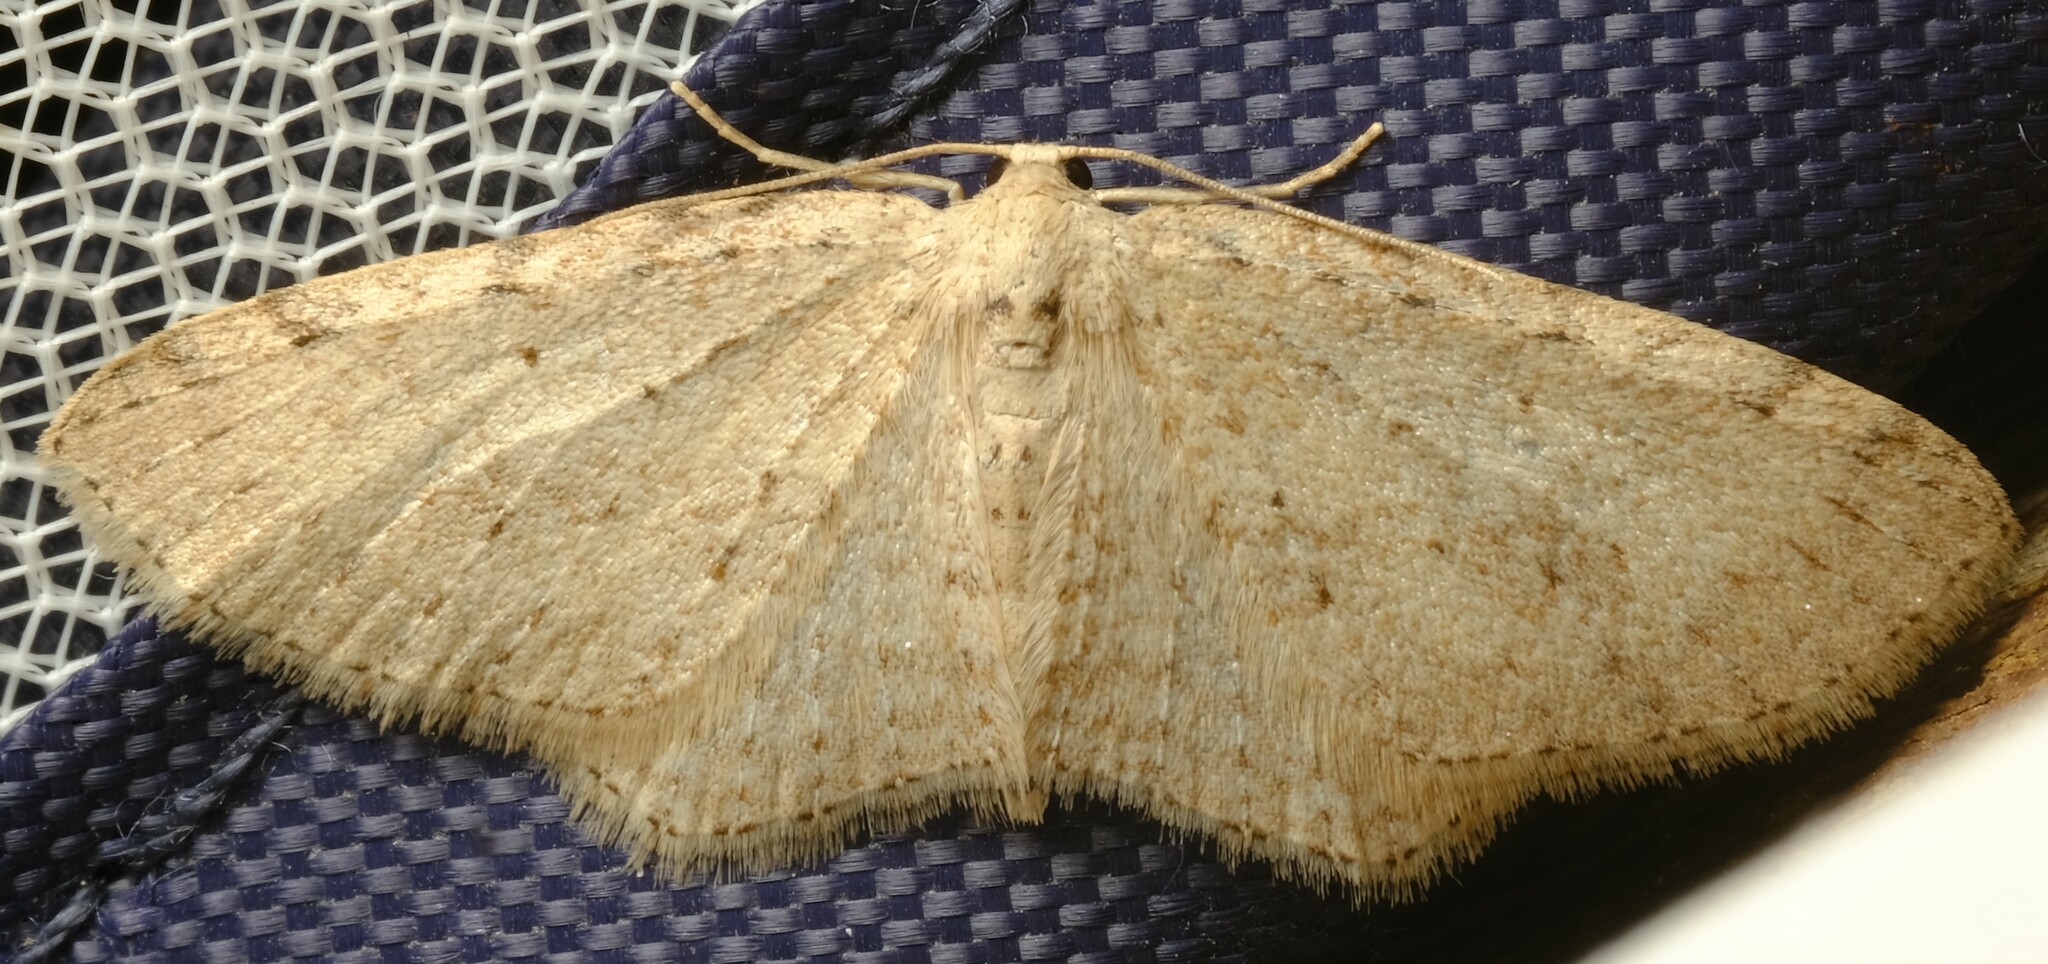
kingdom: Animalia
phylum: Arthropoda
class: Insecta
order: Lepidoptera
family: Geometridae
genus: Poecilasthena
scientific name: Poecilasthena scoliota
